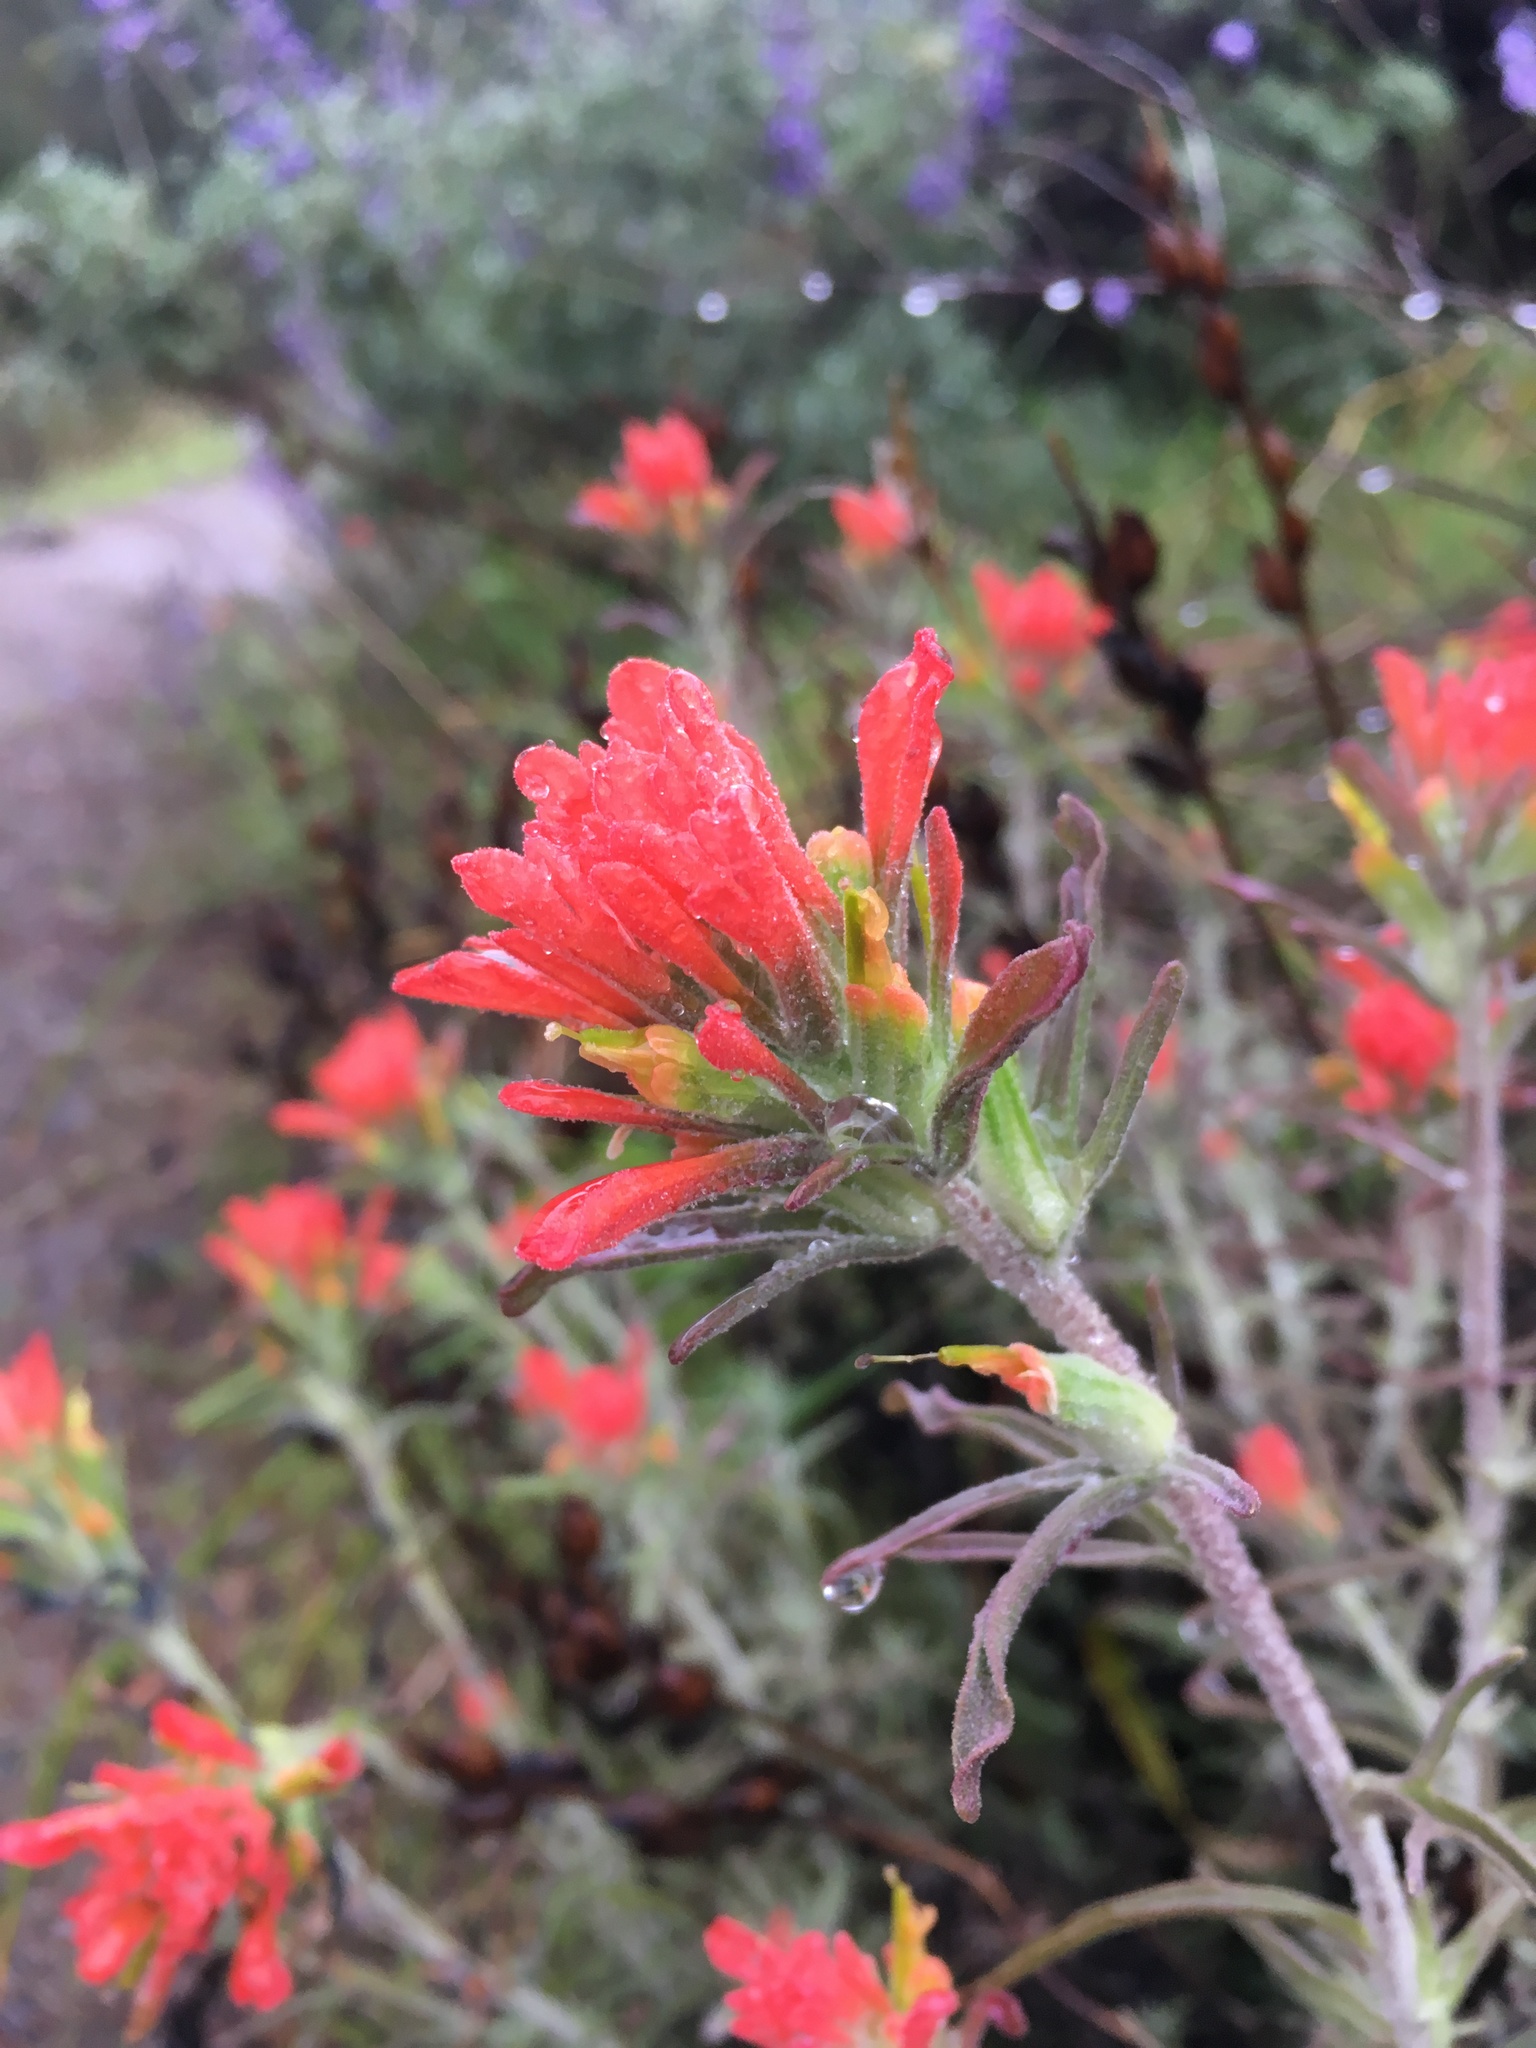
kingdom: Plantae
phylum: Tracheophyta
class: Magnoliopsida
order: Lamiales
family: Orobanchaceae
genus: Castilleja
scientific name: Castilleja foliolosa
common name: Woolly indian paintbrush
